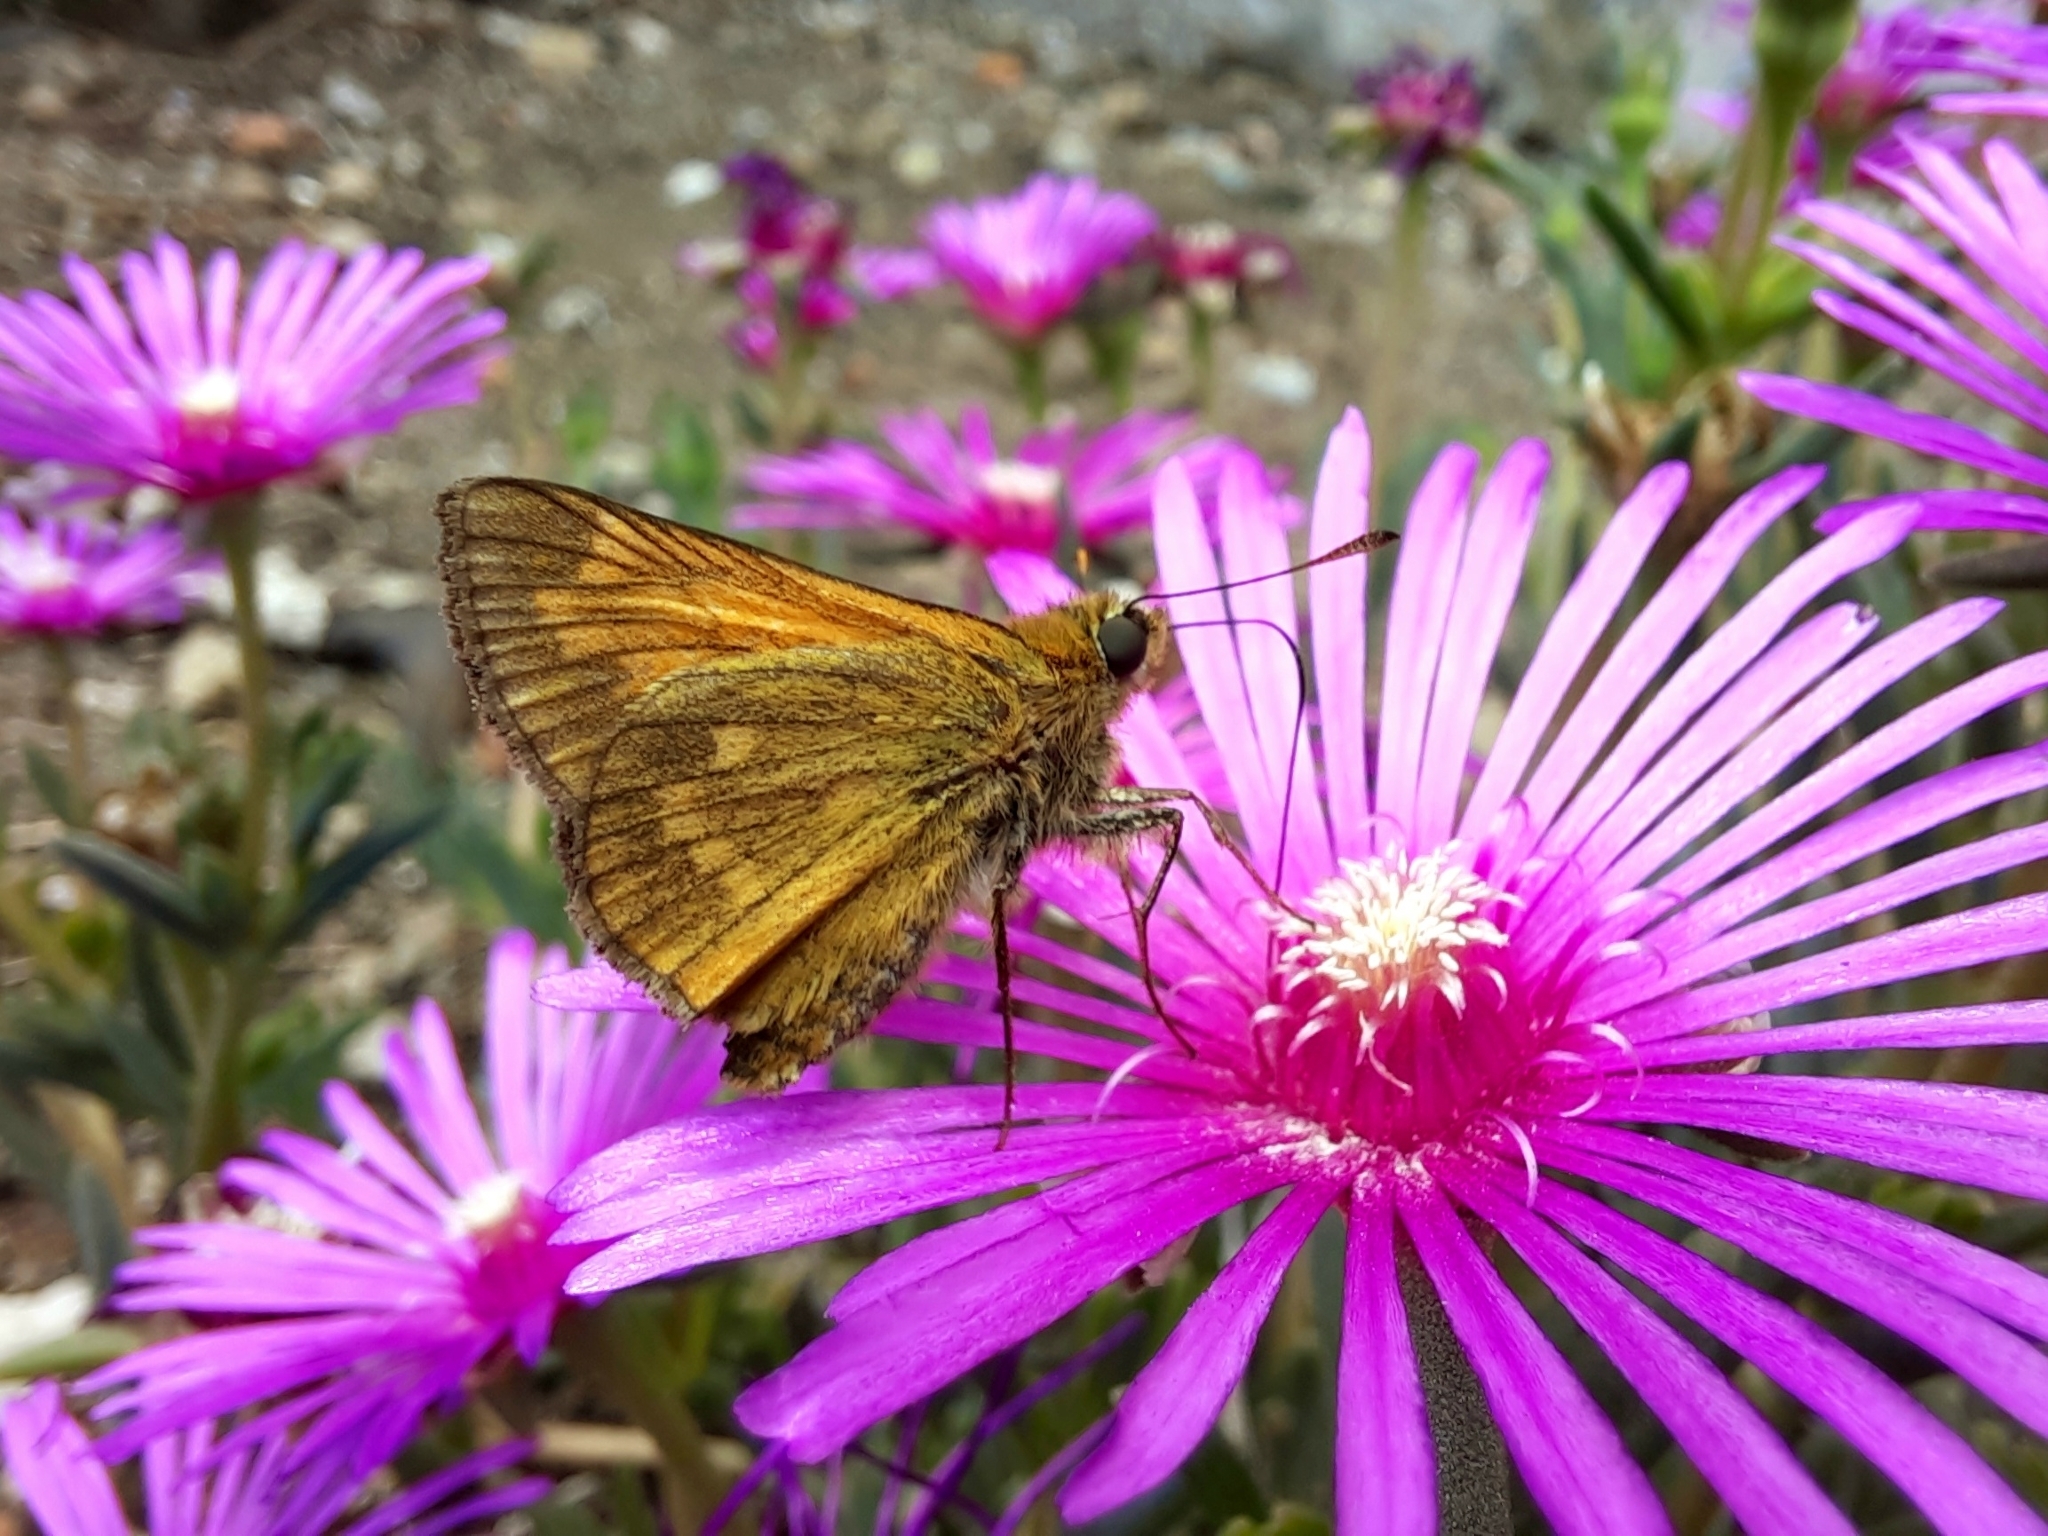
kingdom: Animalia
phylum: Arthropoda
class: Insecta
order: Lepidoptera
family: Hesperiidae
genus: Ochlodes
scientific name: Ochlodes venata
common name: Large skipper
